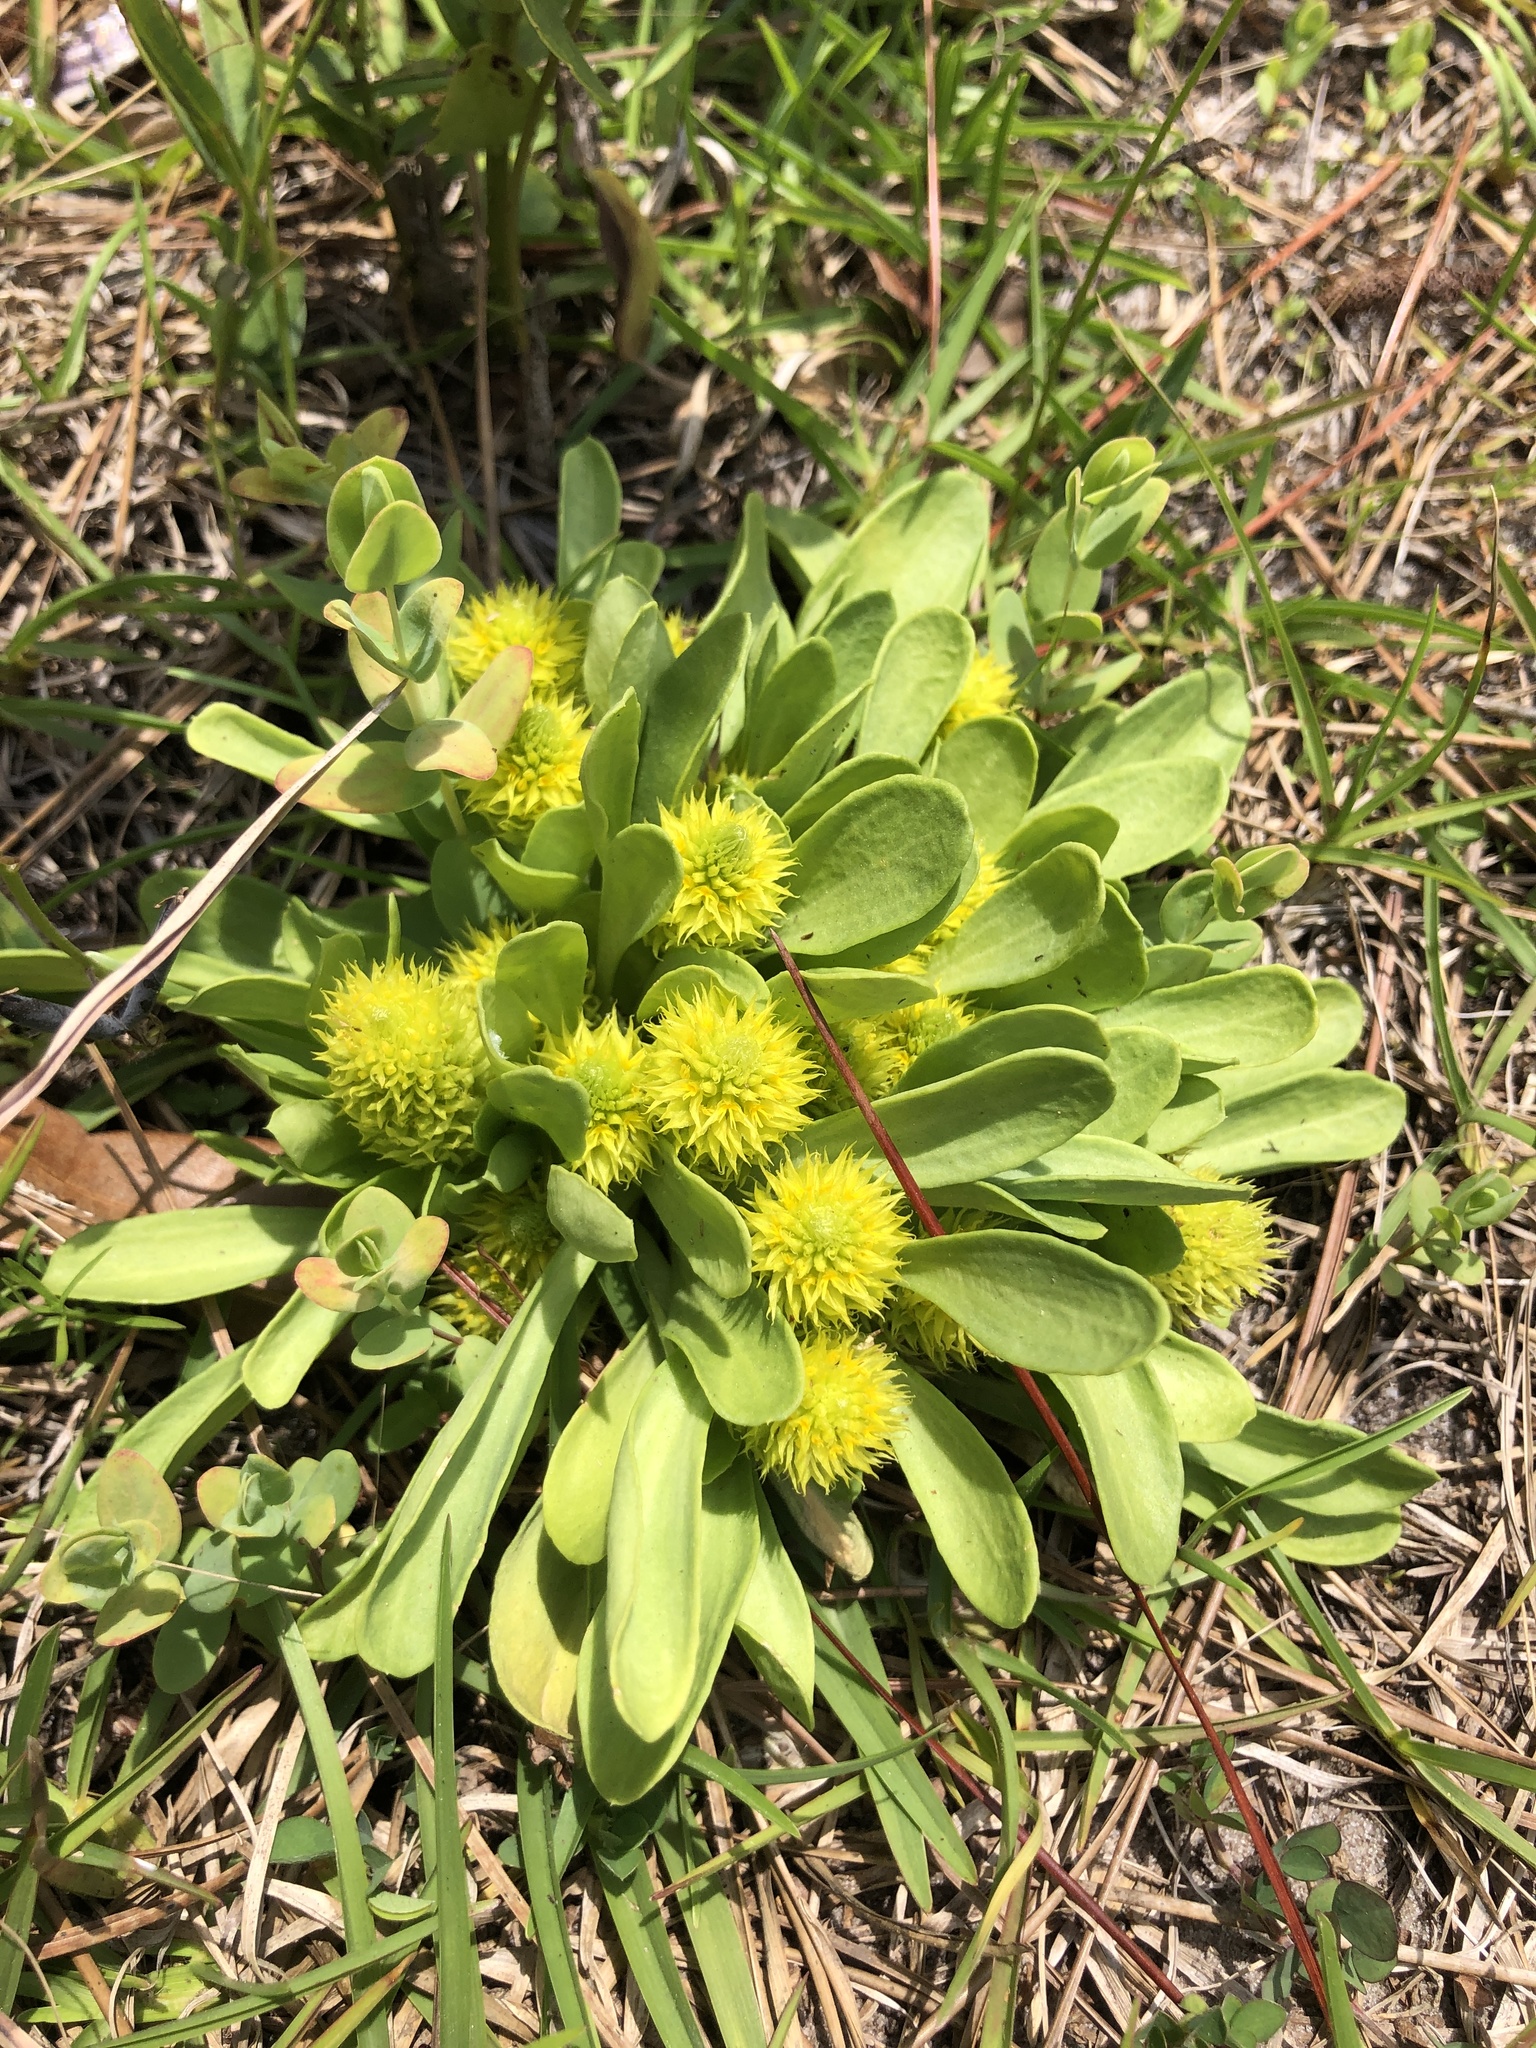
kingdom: Plantae
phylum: Tracheophyta
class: Magnoliopsida
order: Fabales
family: Polygalaceae
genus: Polygala
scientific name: Polygala nana
